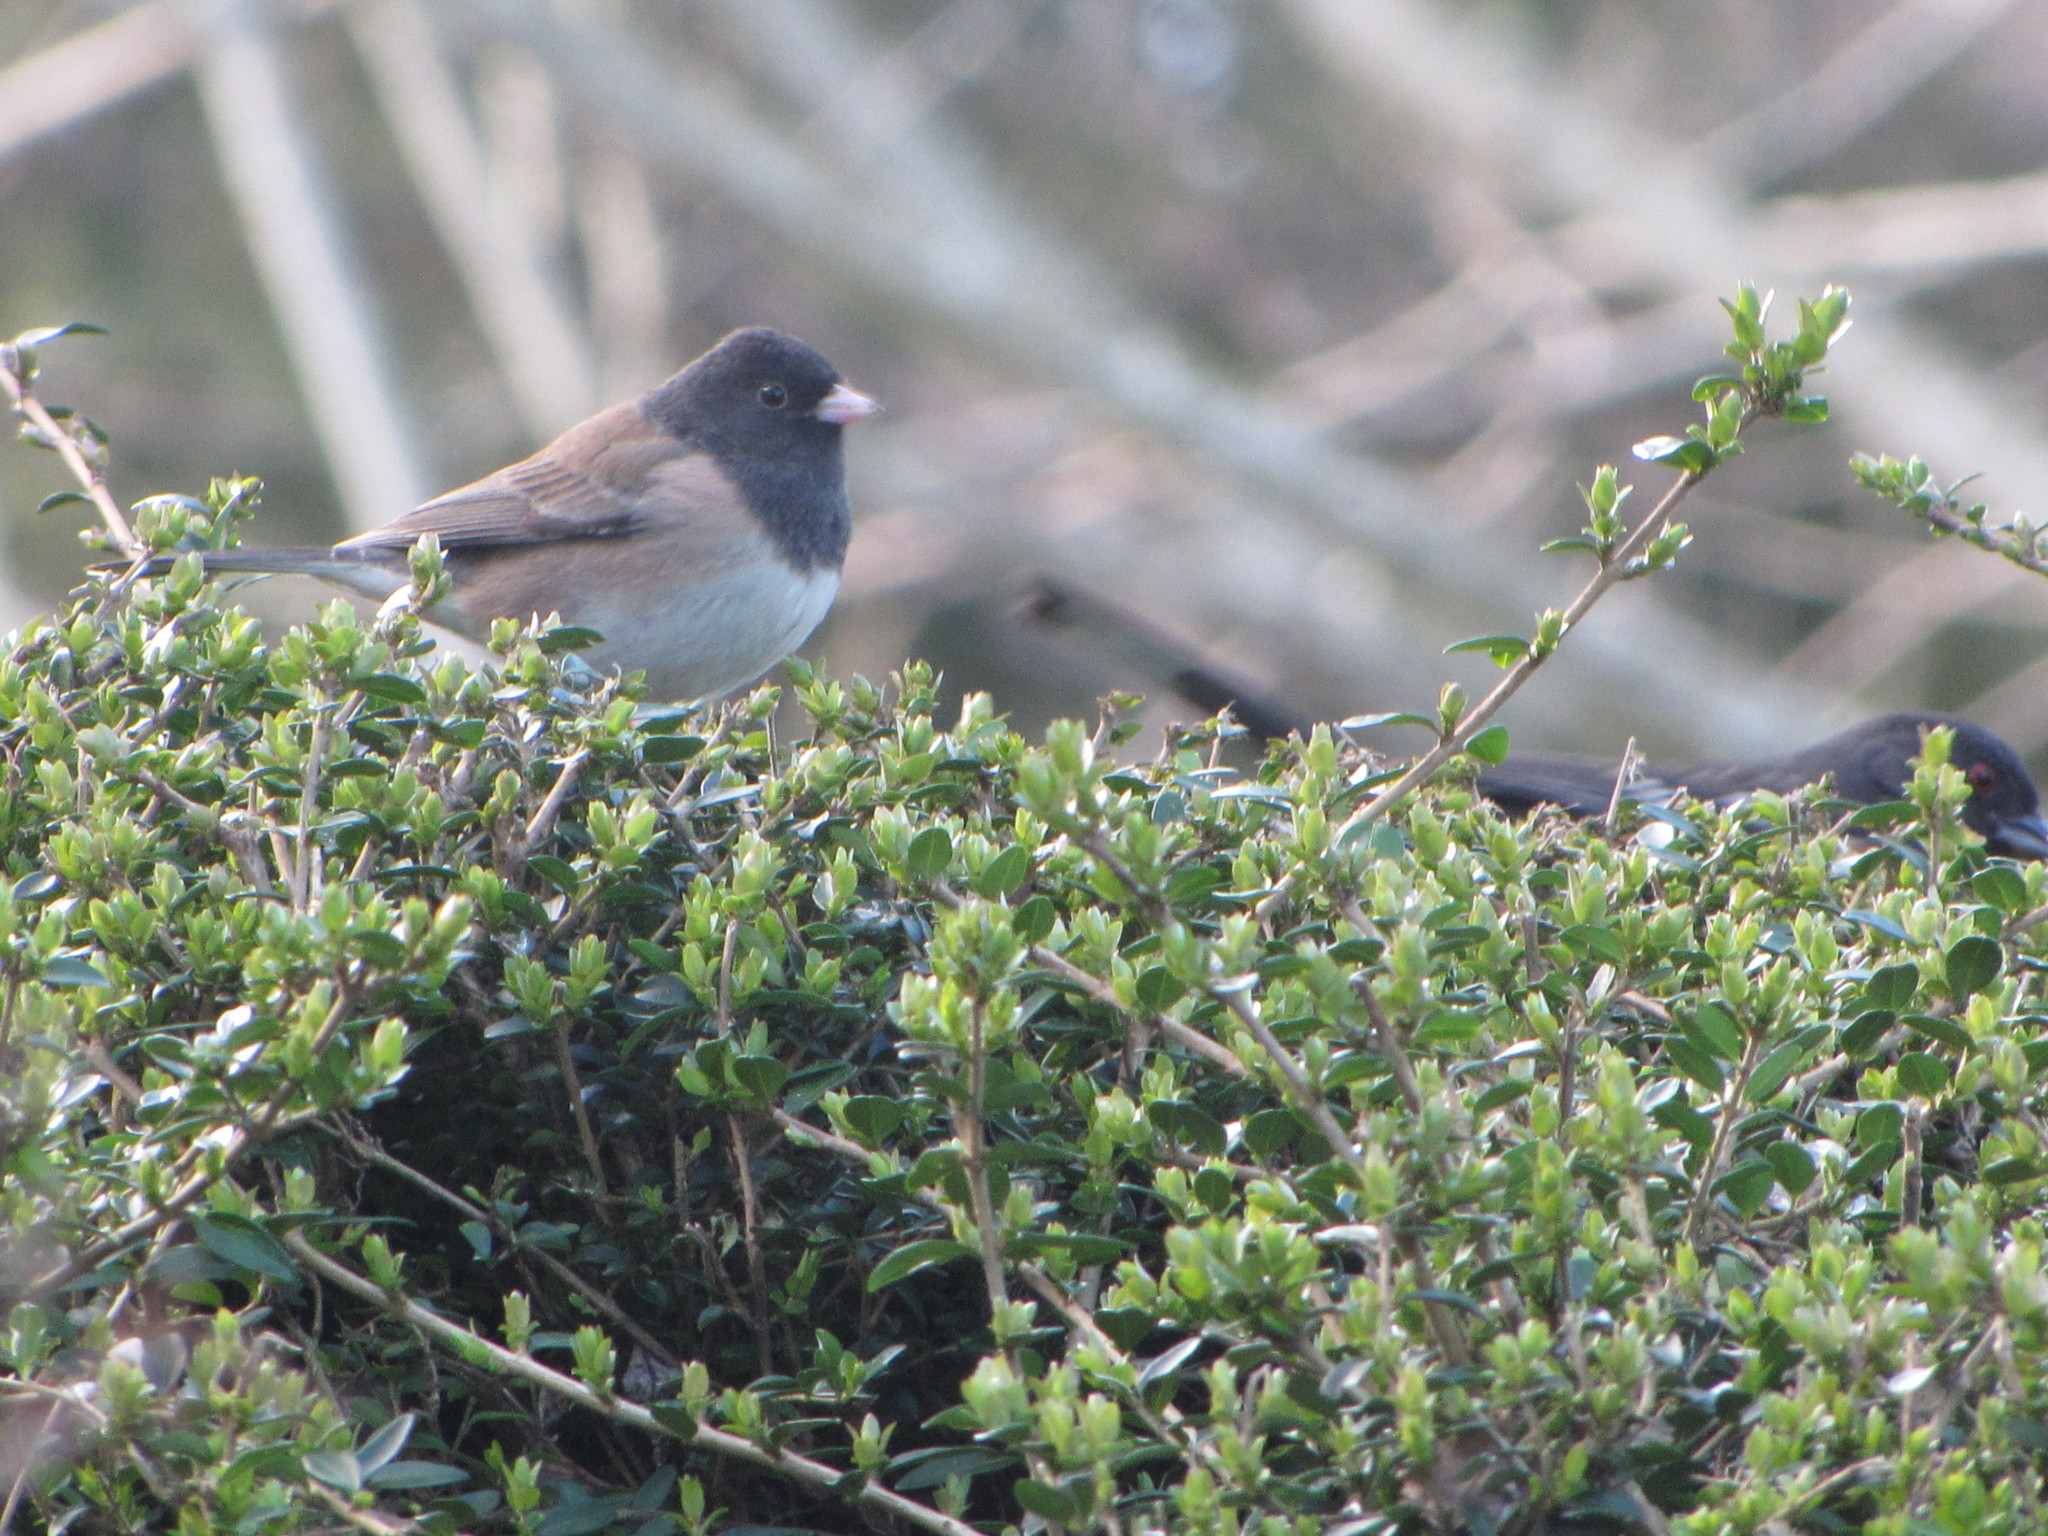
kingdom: Animalia
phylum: Chordata
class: Aves
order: Passeriformes
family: Passerellidae
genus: Junco
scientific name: Junco hyemalis
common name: Dark-eyed junco
